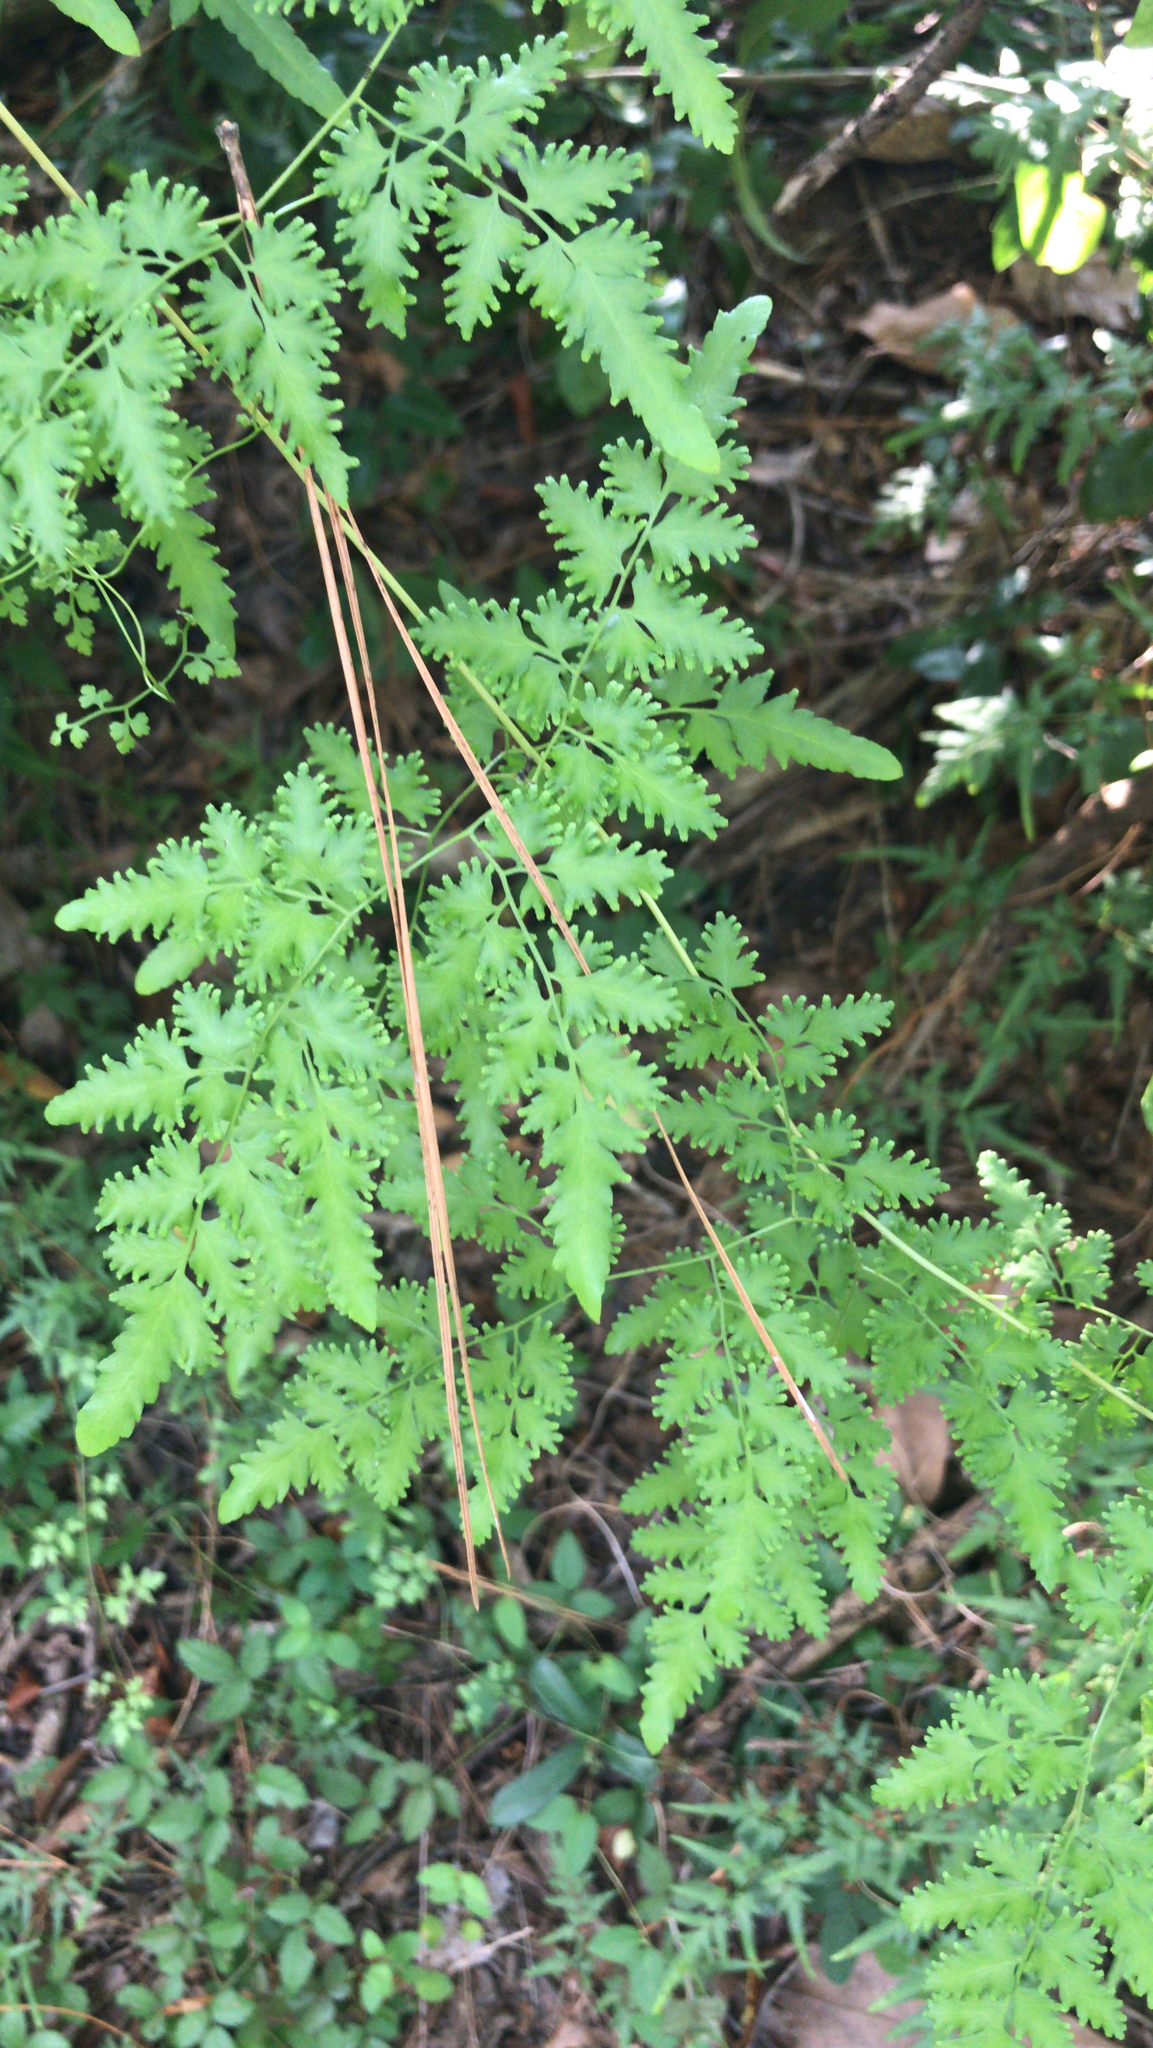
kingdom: Plantae
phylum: Tracheophyta
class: Polypodiopsida
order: Schizaeales
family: Lygodiaceae
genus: Lygodium
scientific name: Lygodium japonicum
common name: Japanese climbing fern
